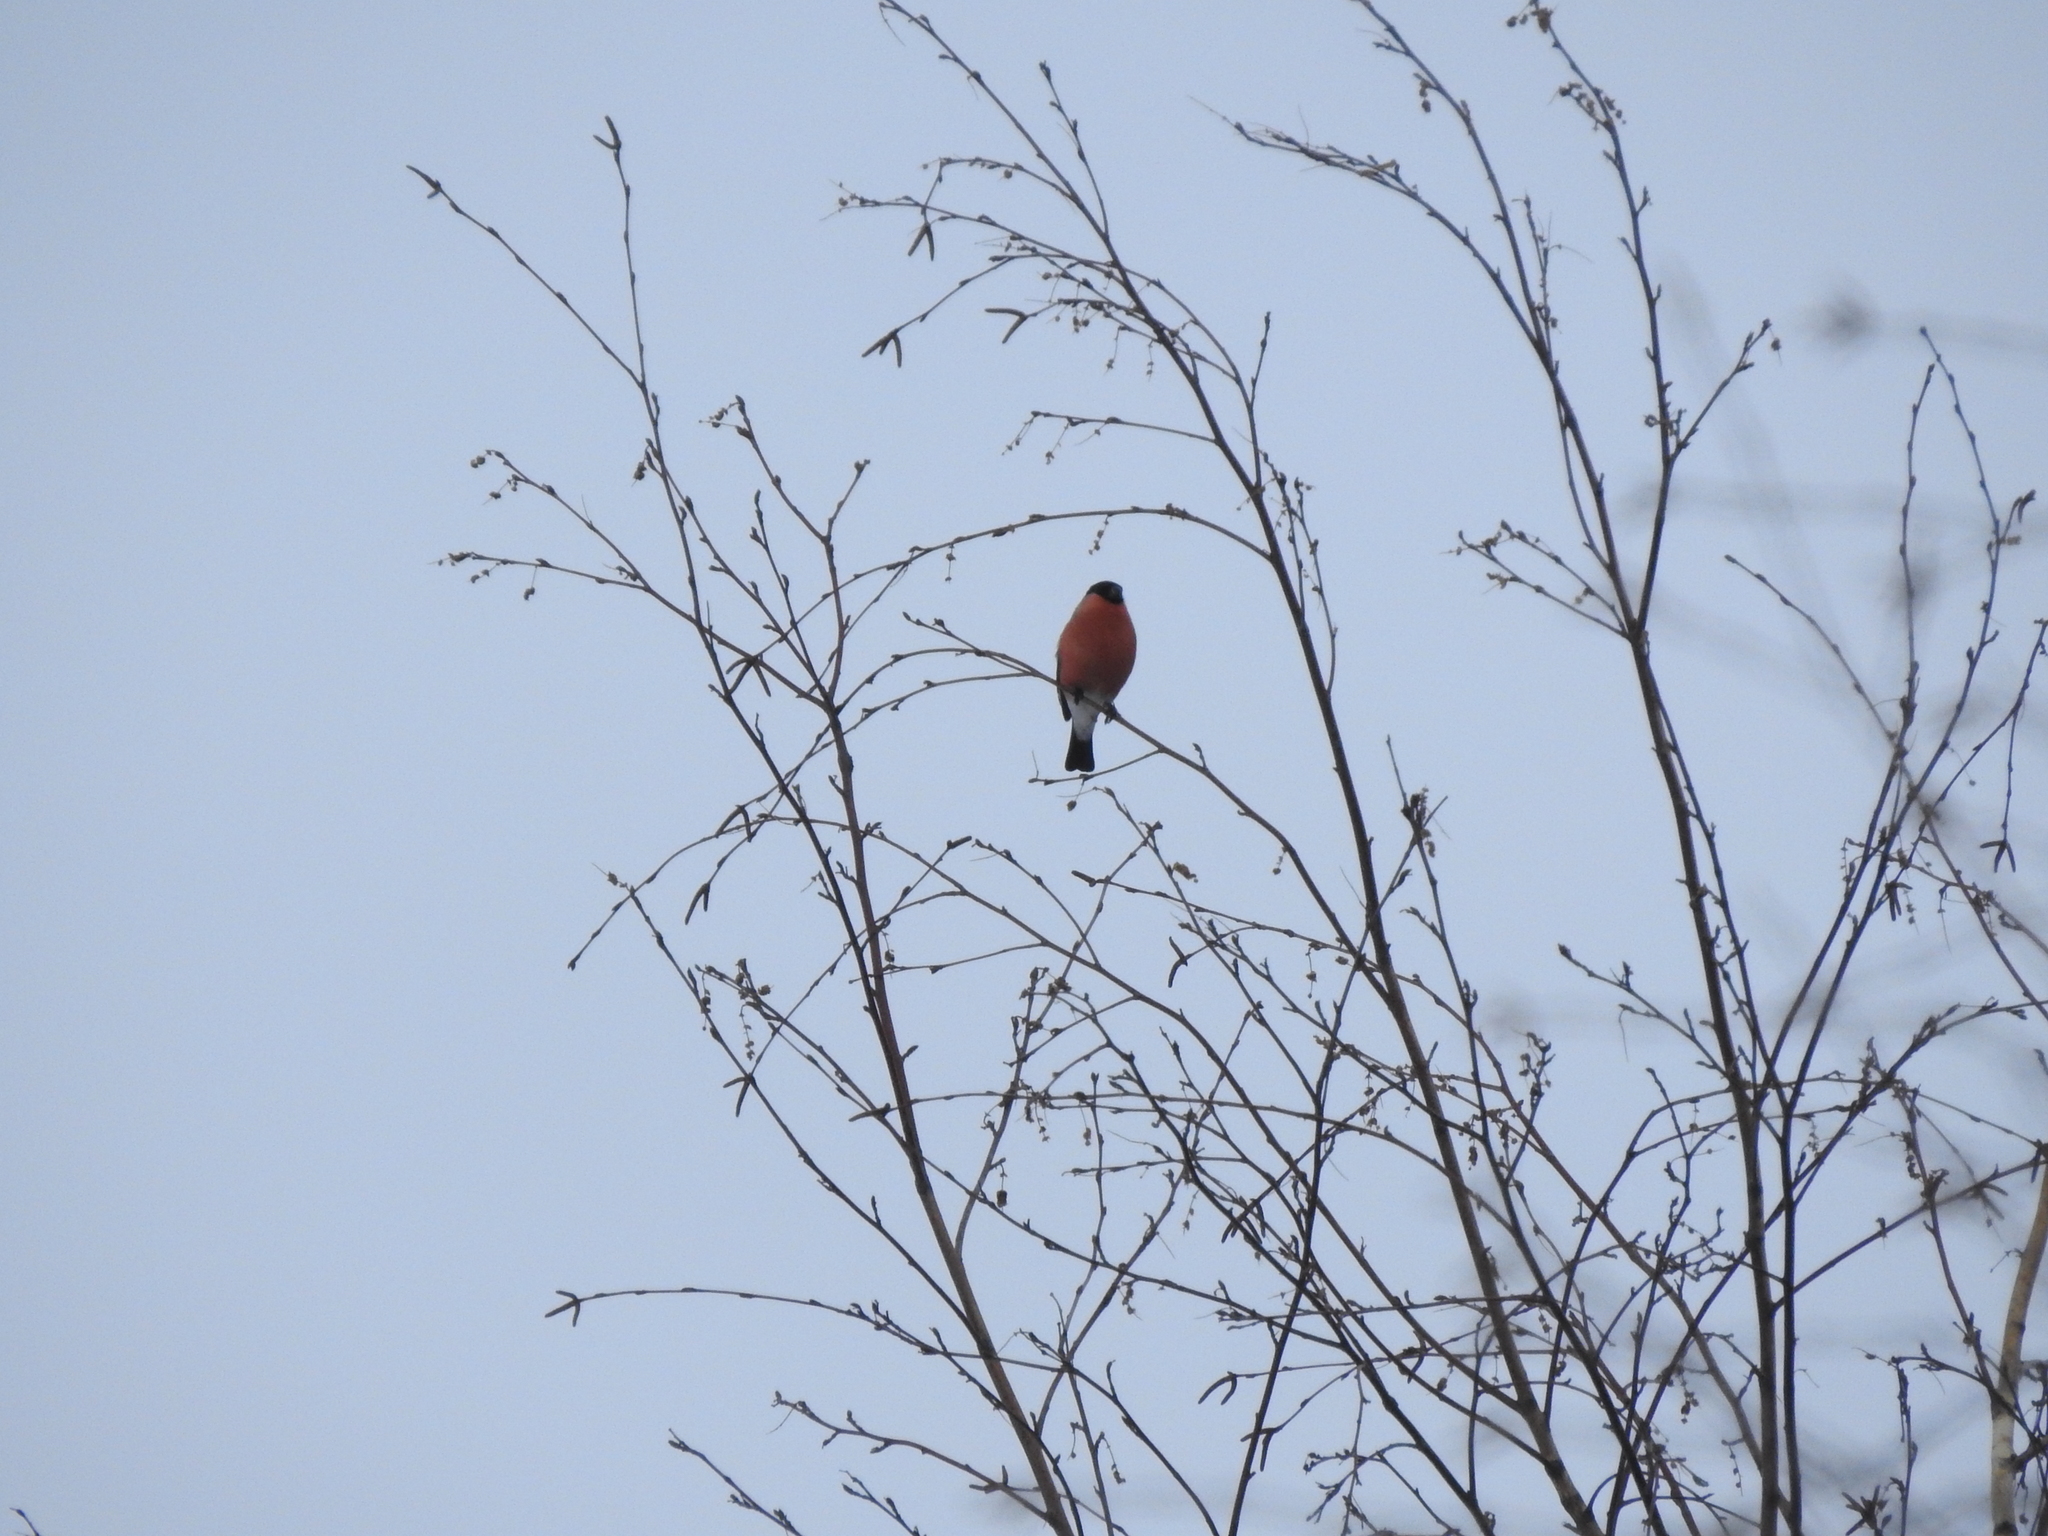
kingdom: Animalia
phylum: Chordata
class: Aves
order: Passeriformes
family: Fringillidae
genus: Pyrrhula
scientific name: Pyrrhula pyrrhula
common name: Eurasian bullfinch
